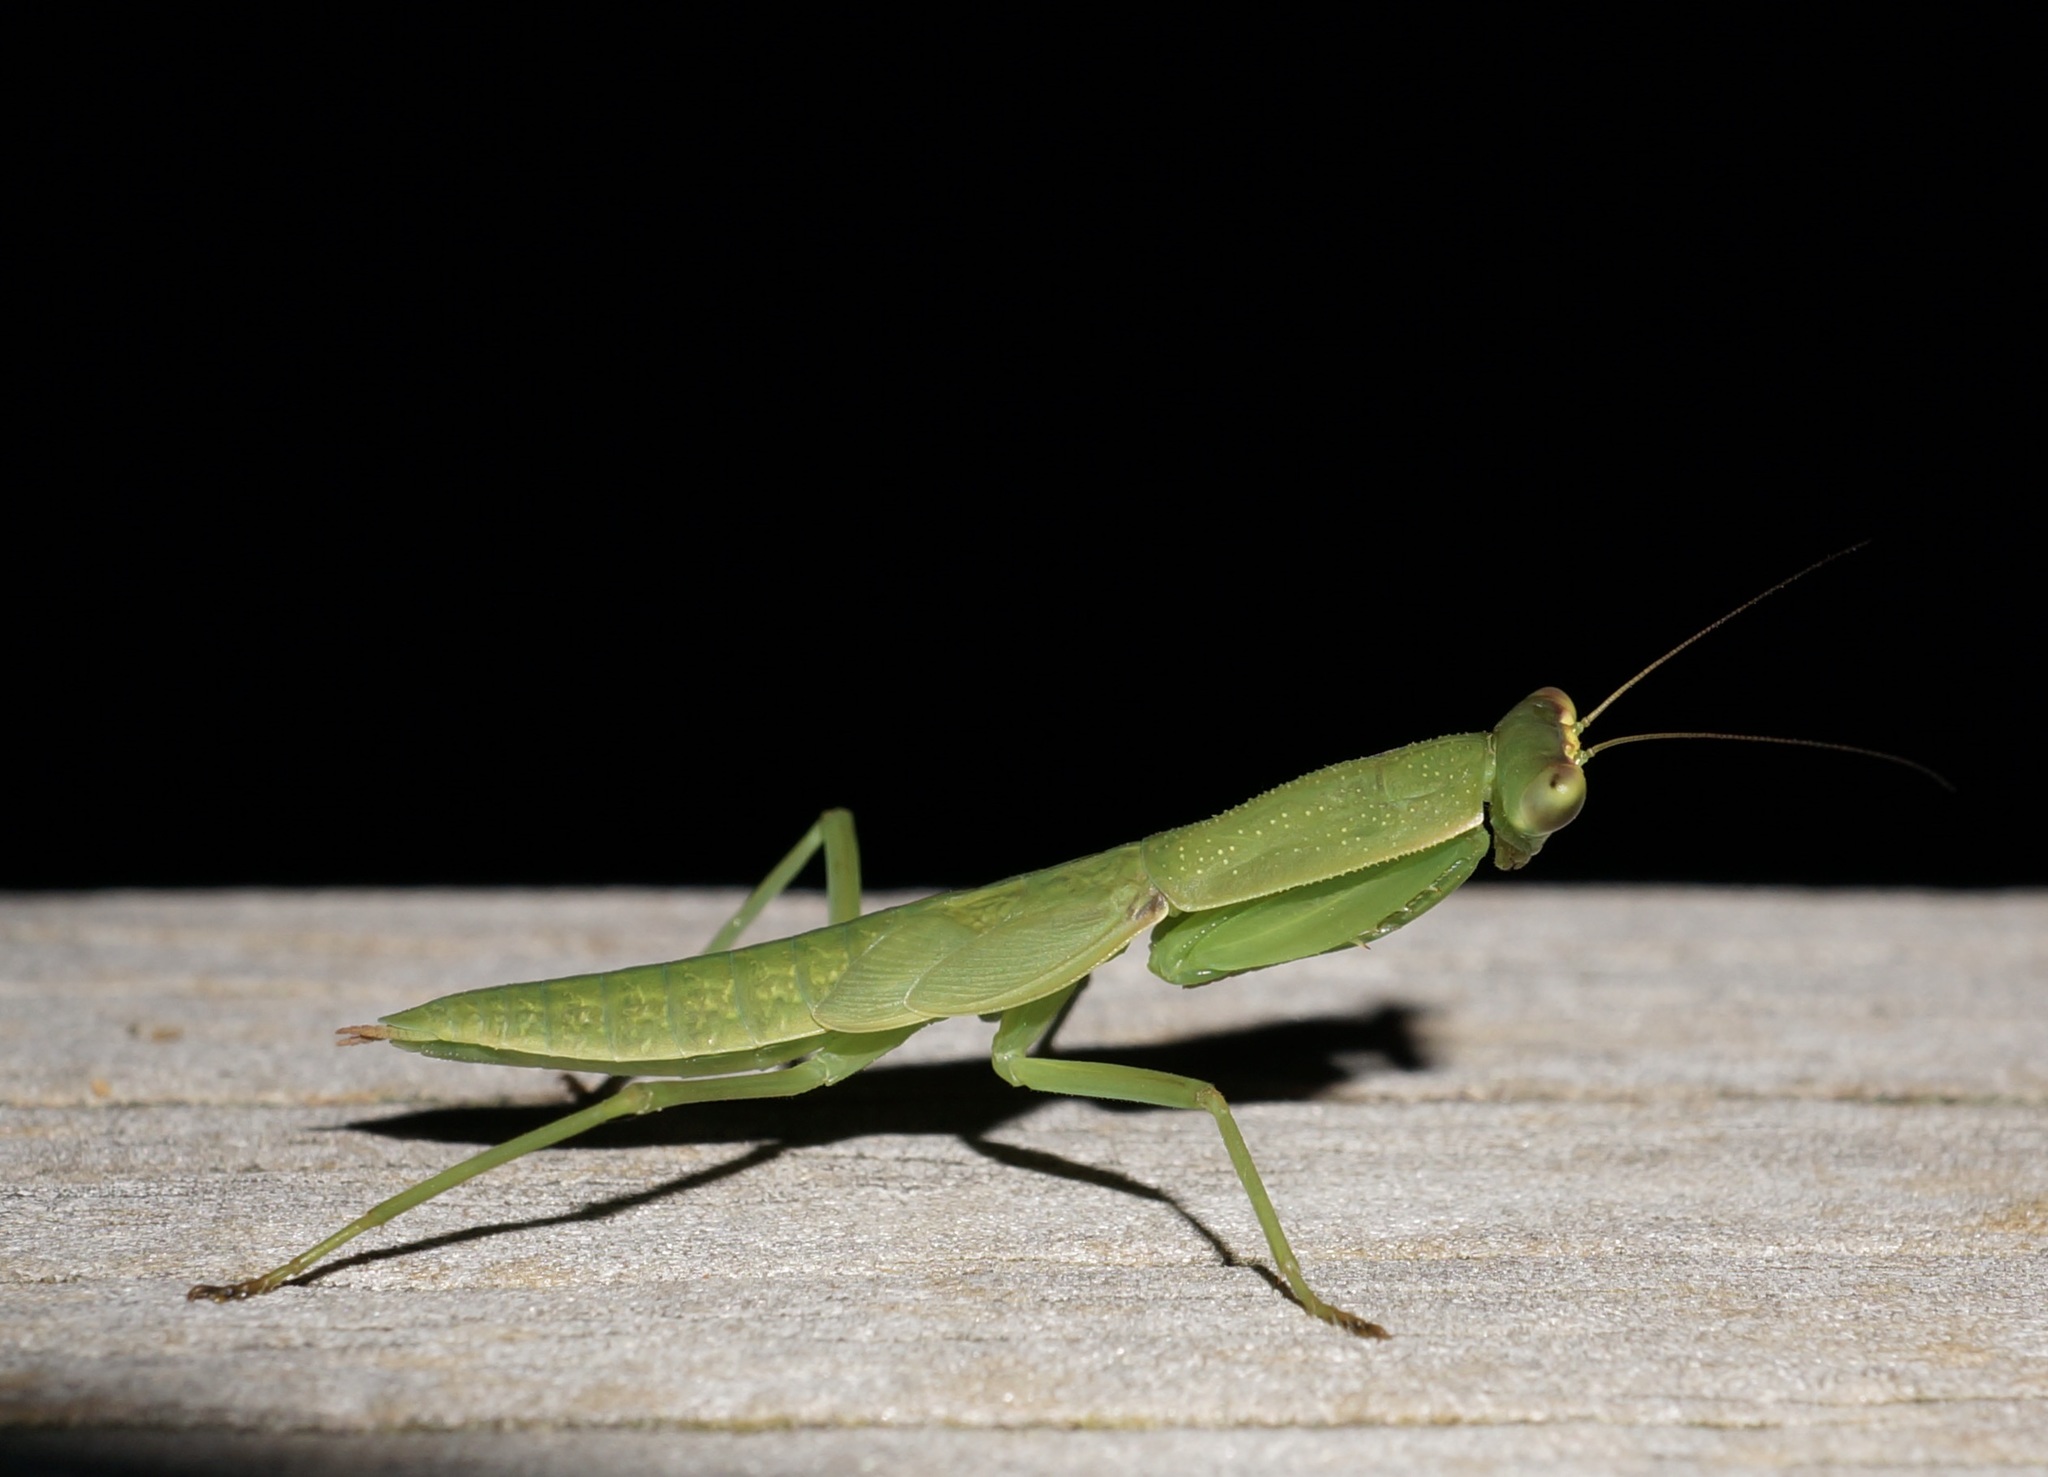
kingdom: Animalia
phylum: Arthropoda
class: Insecta
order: Mantodea
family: Mantidae
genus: Orthodera
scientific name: Orthodera novaezealandiae
